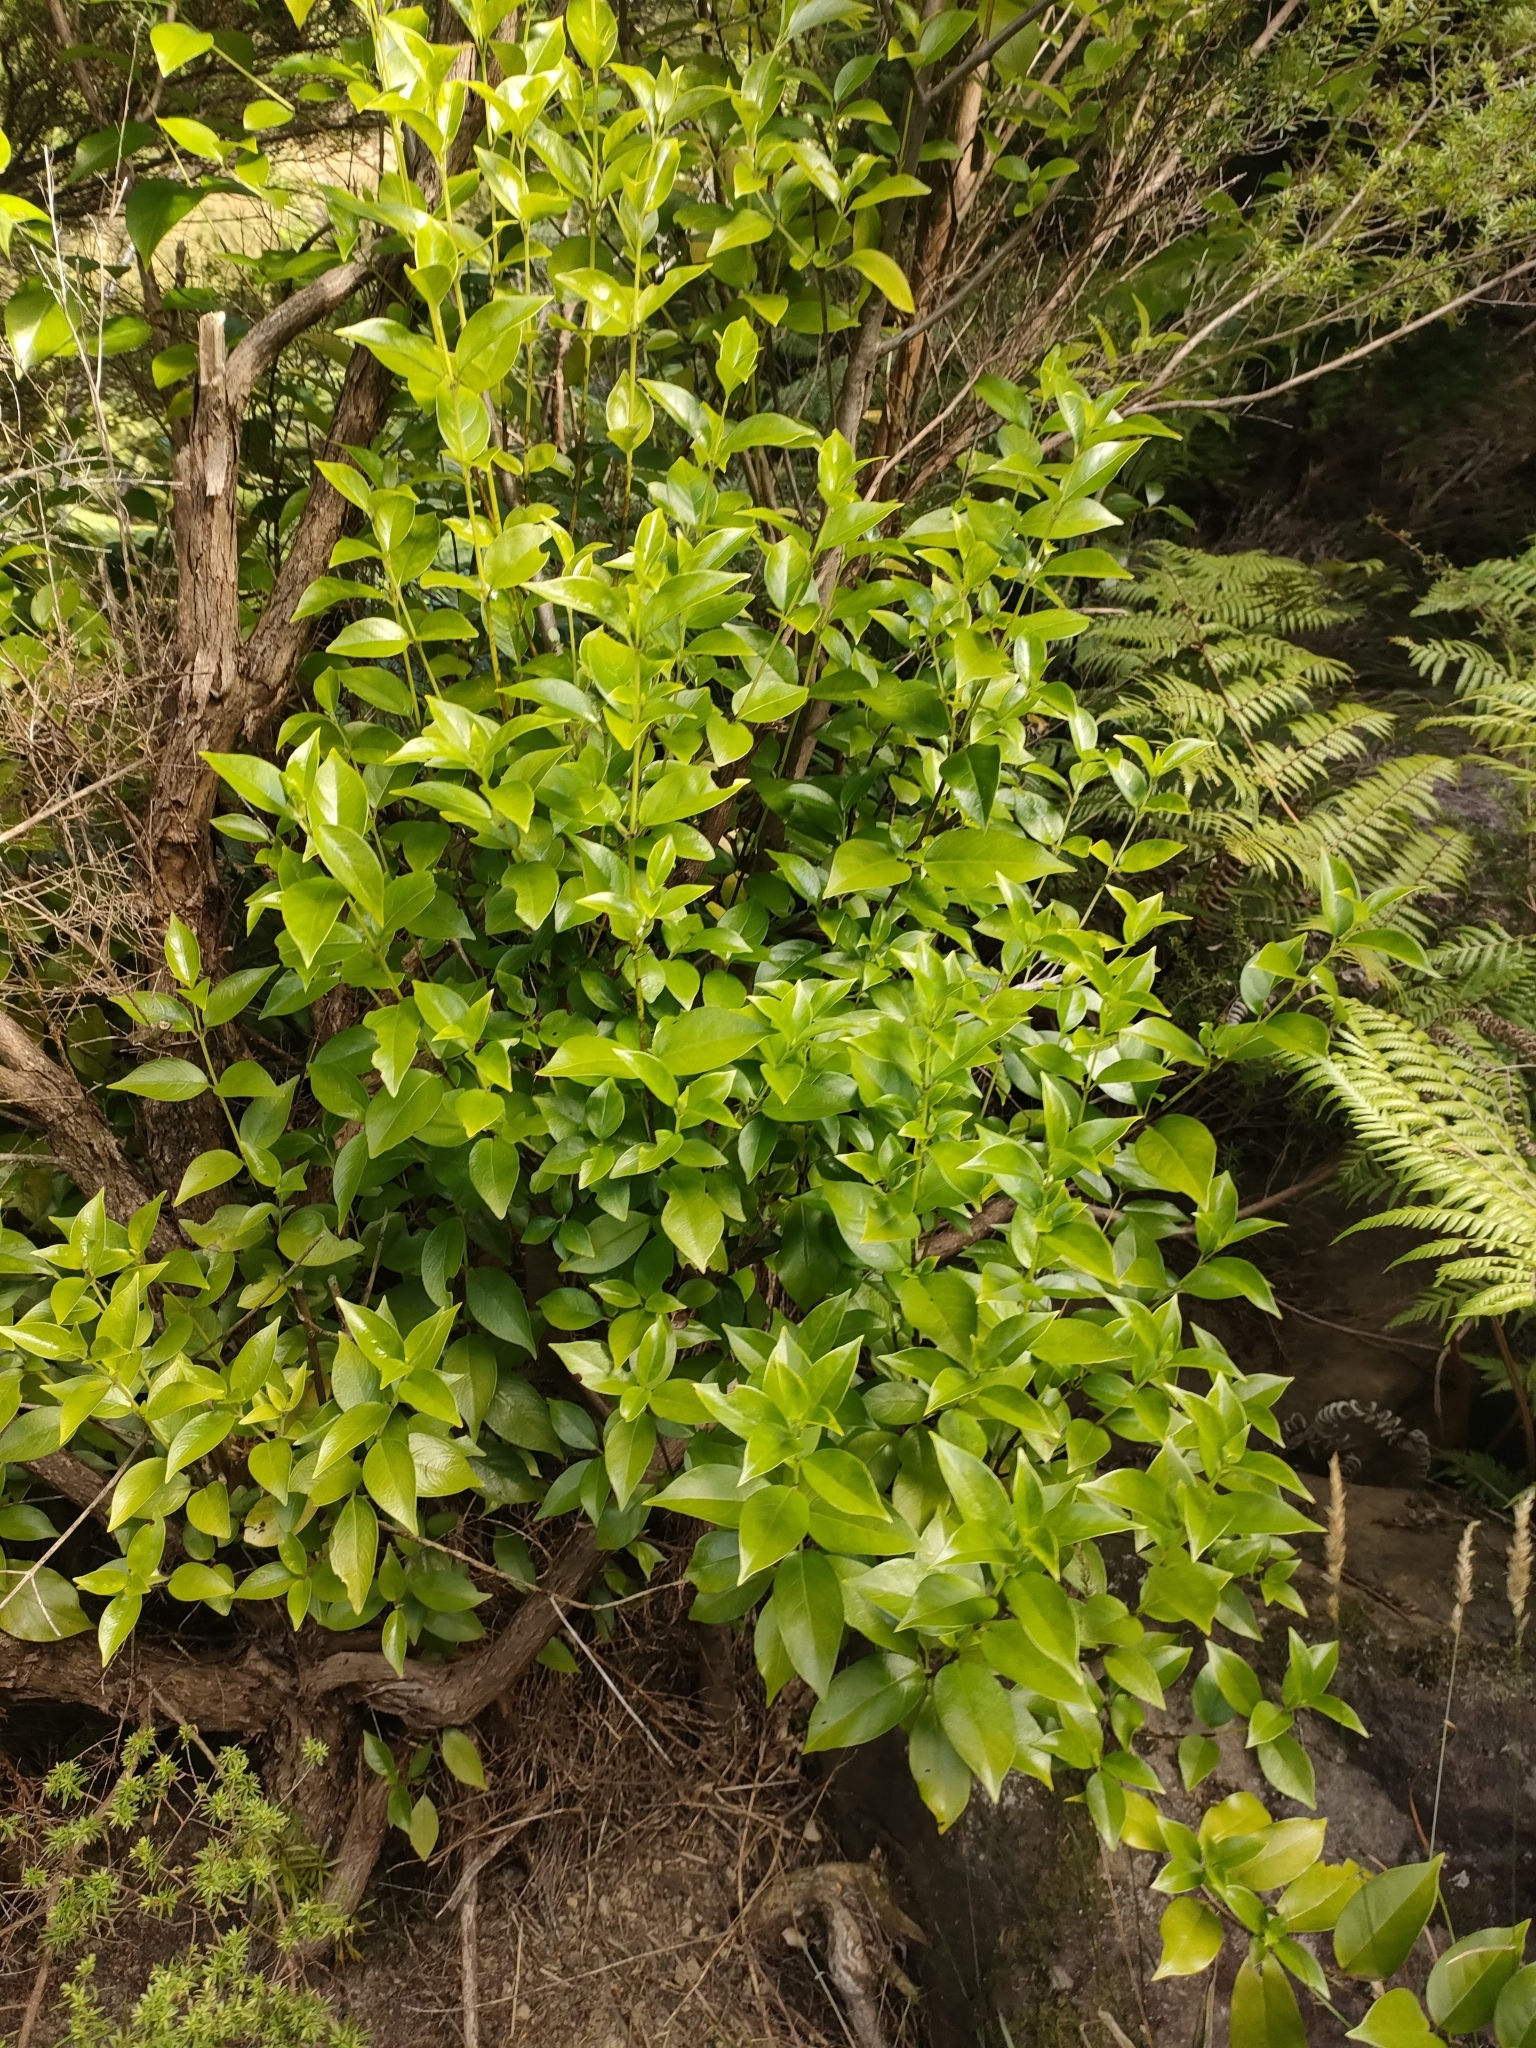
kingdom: Plantae
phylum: Tracheophyta
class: Magnoliopsida
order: Gentianales
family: Loganiaceae
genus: Geniostoma
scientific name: Geniostoma ligustrifolium
